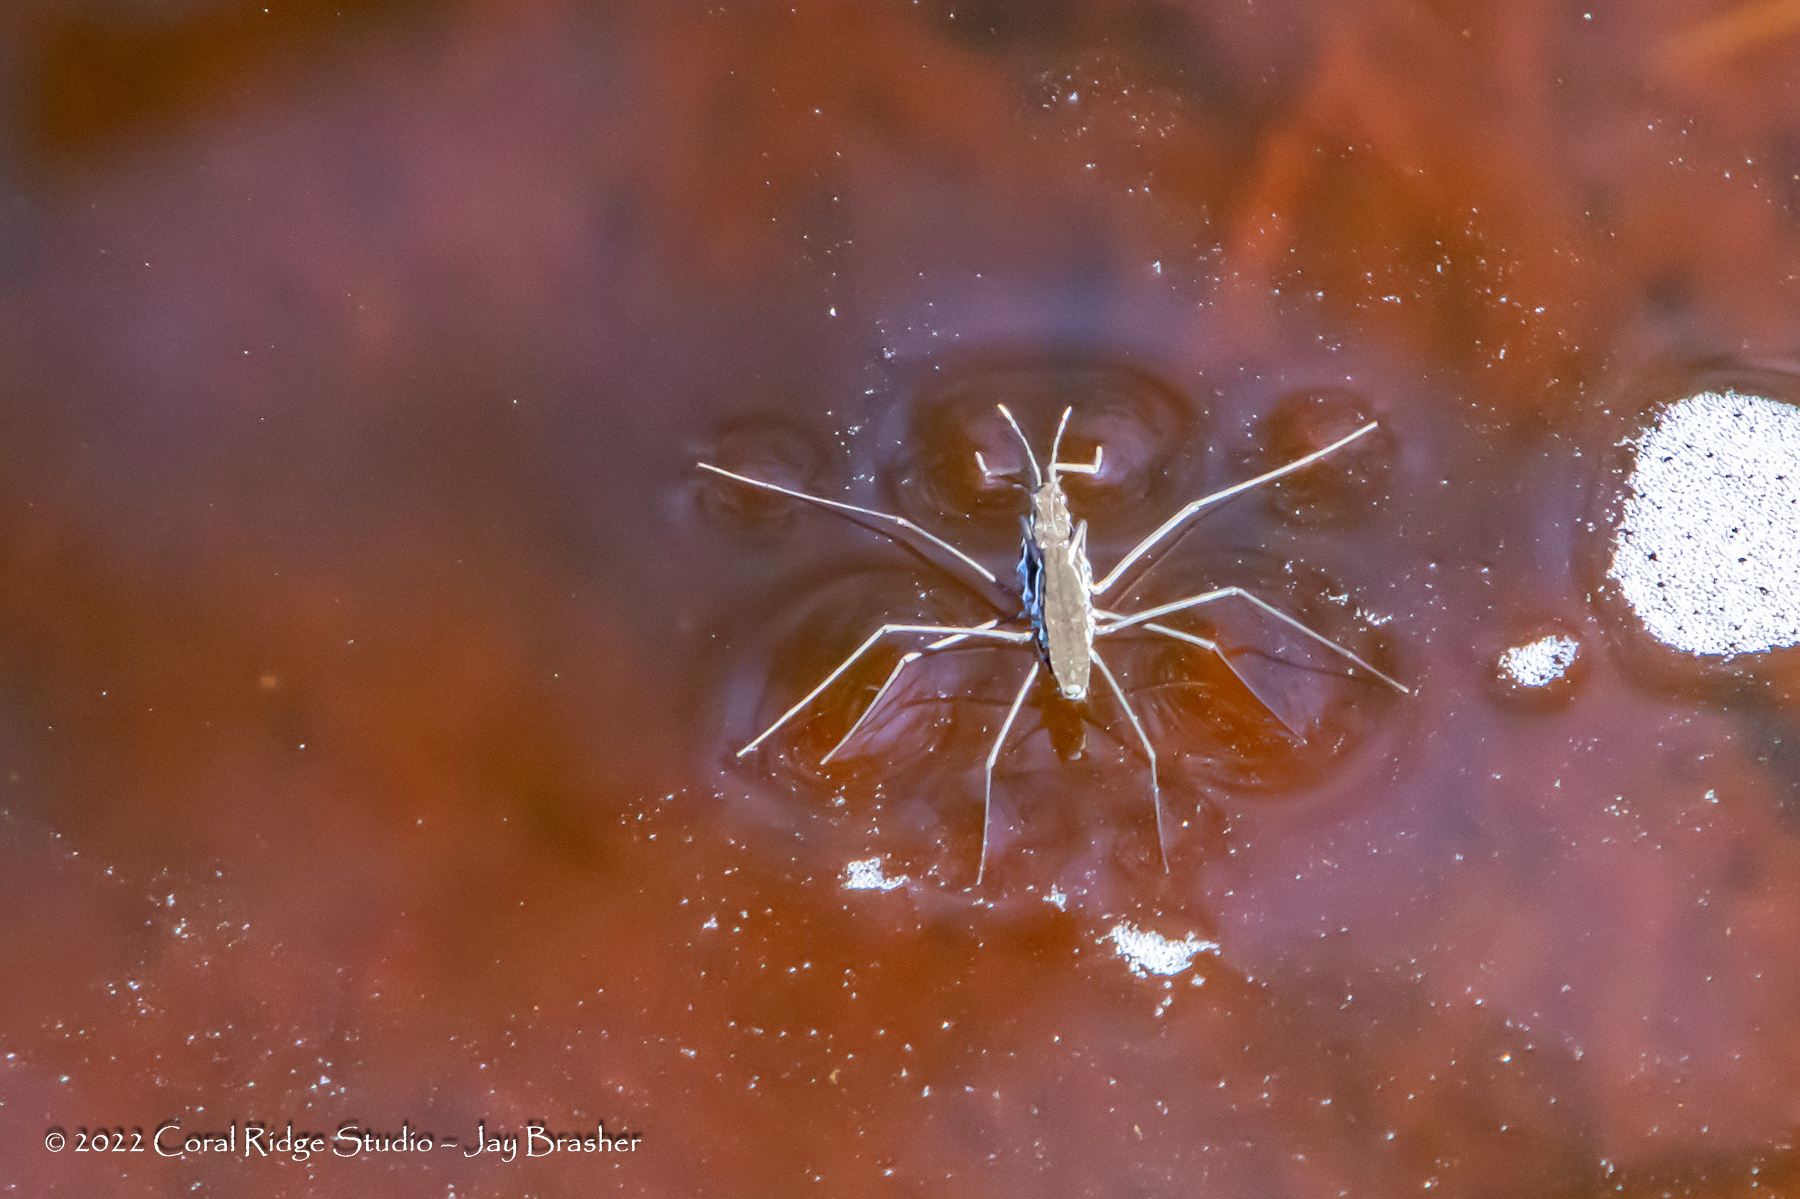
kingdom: Animalia
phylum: Arthropoda
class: Insecta
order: Hemiptera
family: Gerridae
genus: Aquarius
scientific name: Aquarius remigis
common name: Common water strider
